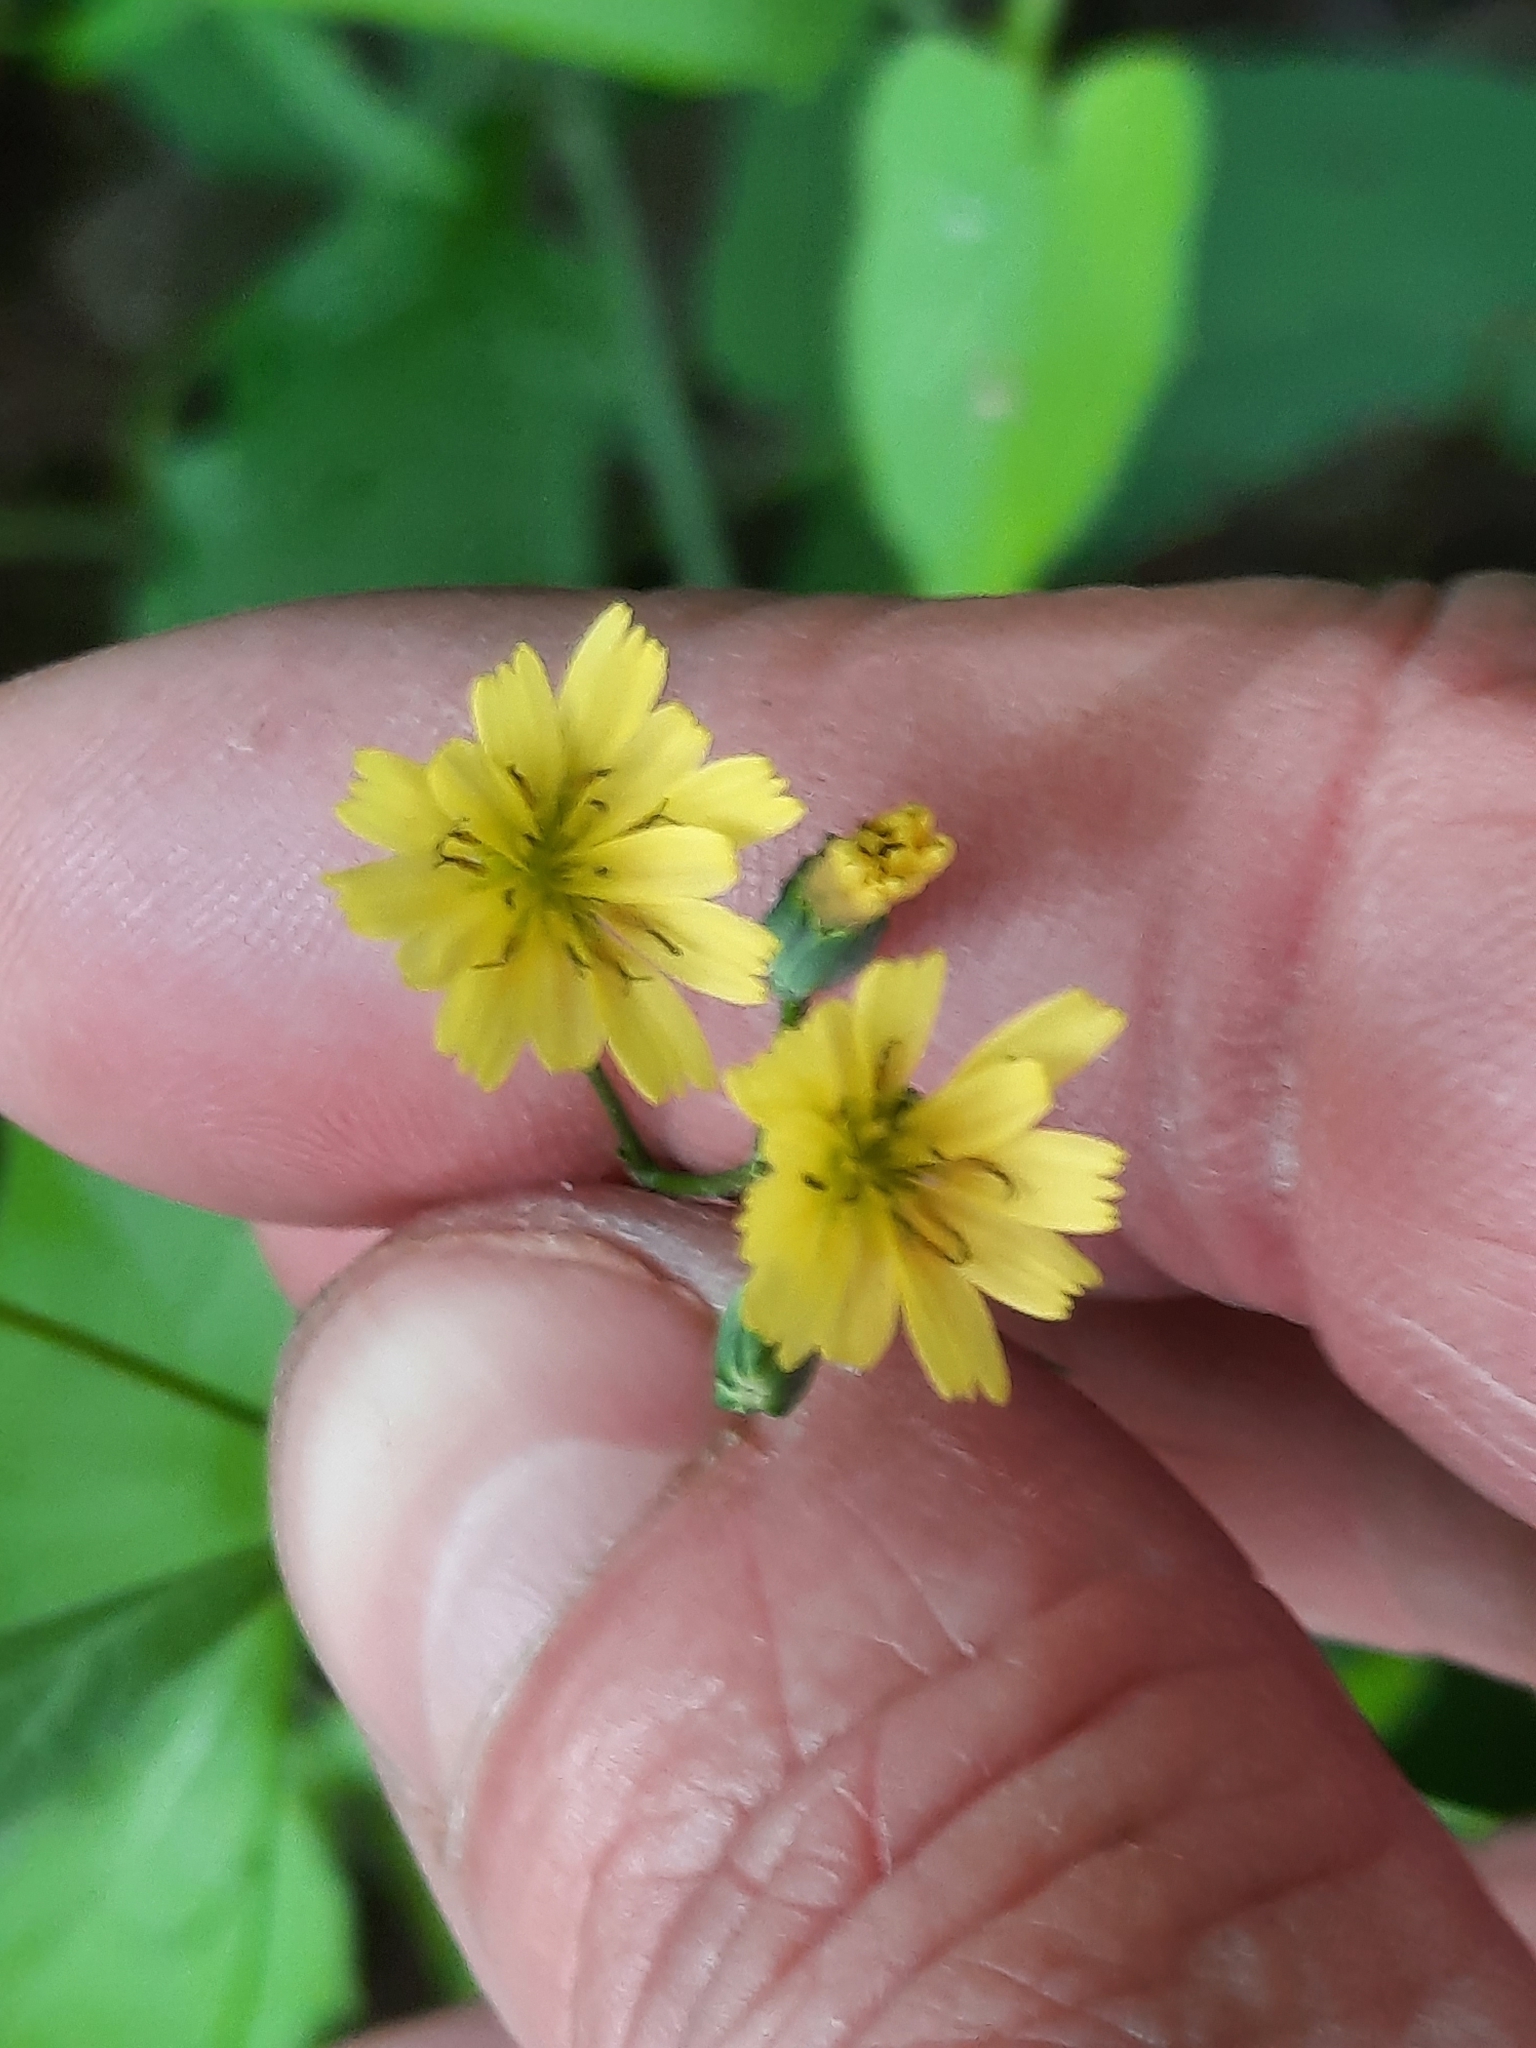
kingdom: Plantae
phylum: Tracheophyta
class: Magnoliopsida
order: Asterales
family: Asteraceae
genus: Lapsana
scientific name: Lapsana communis
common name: Nipplewort
